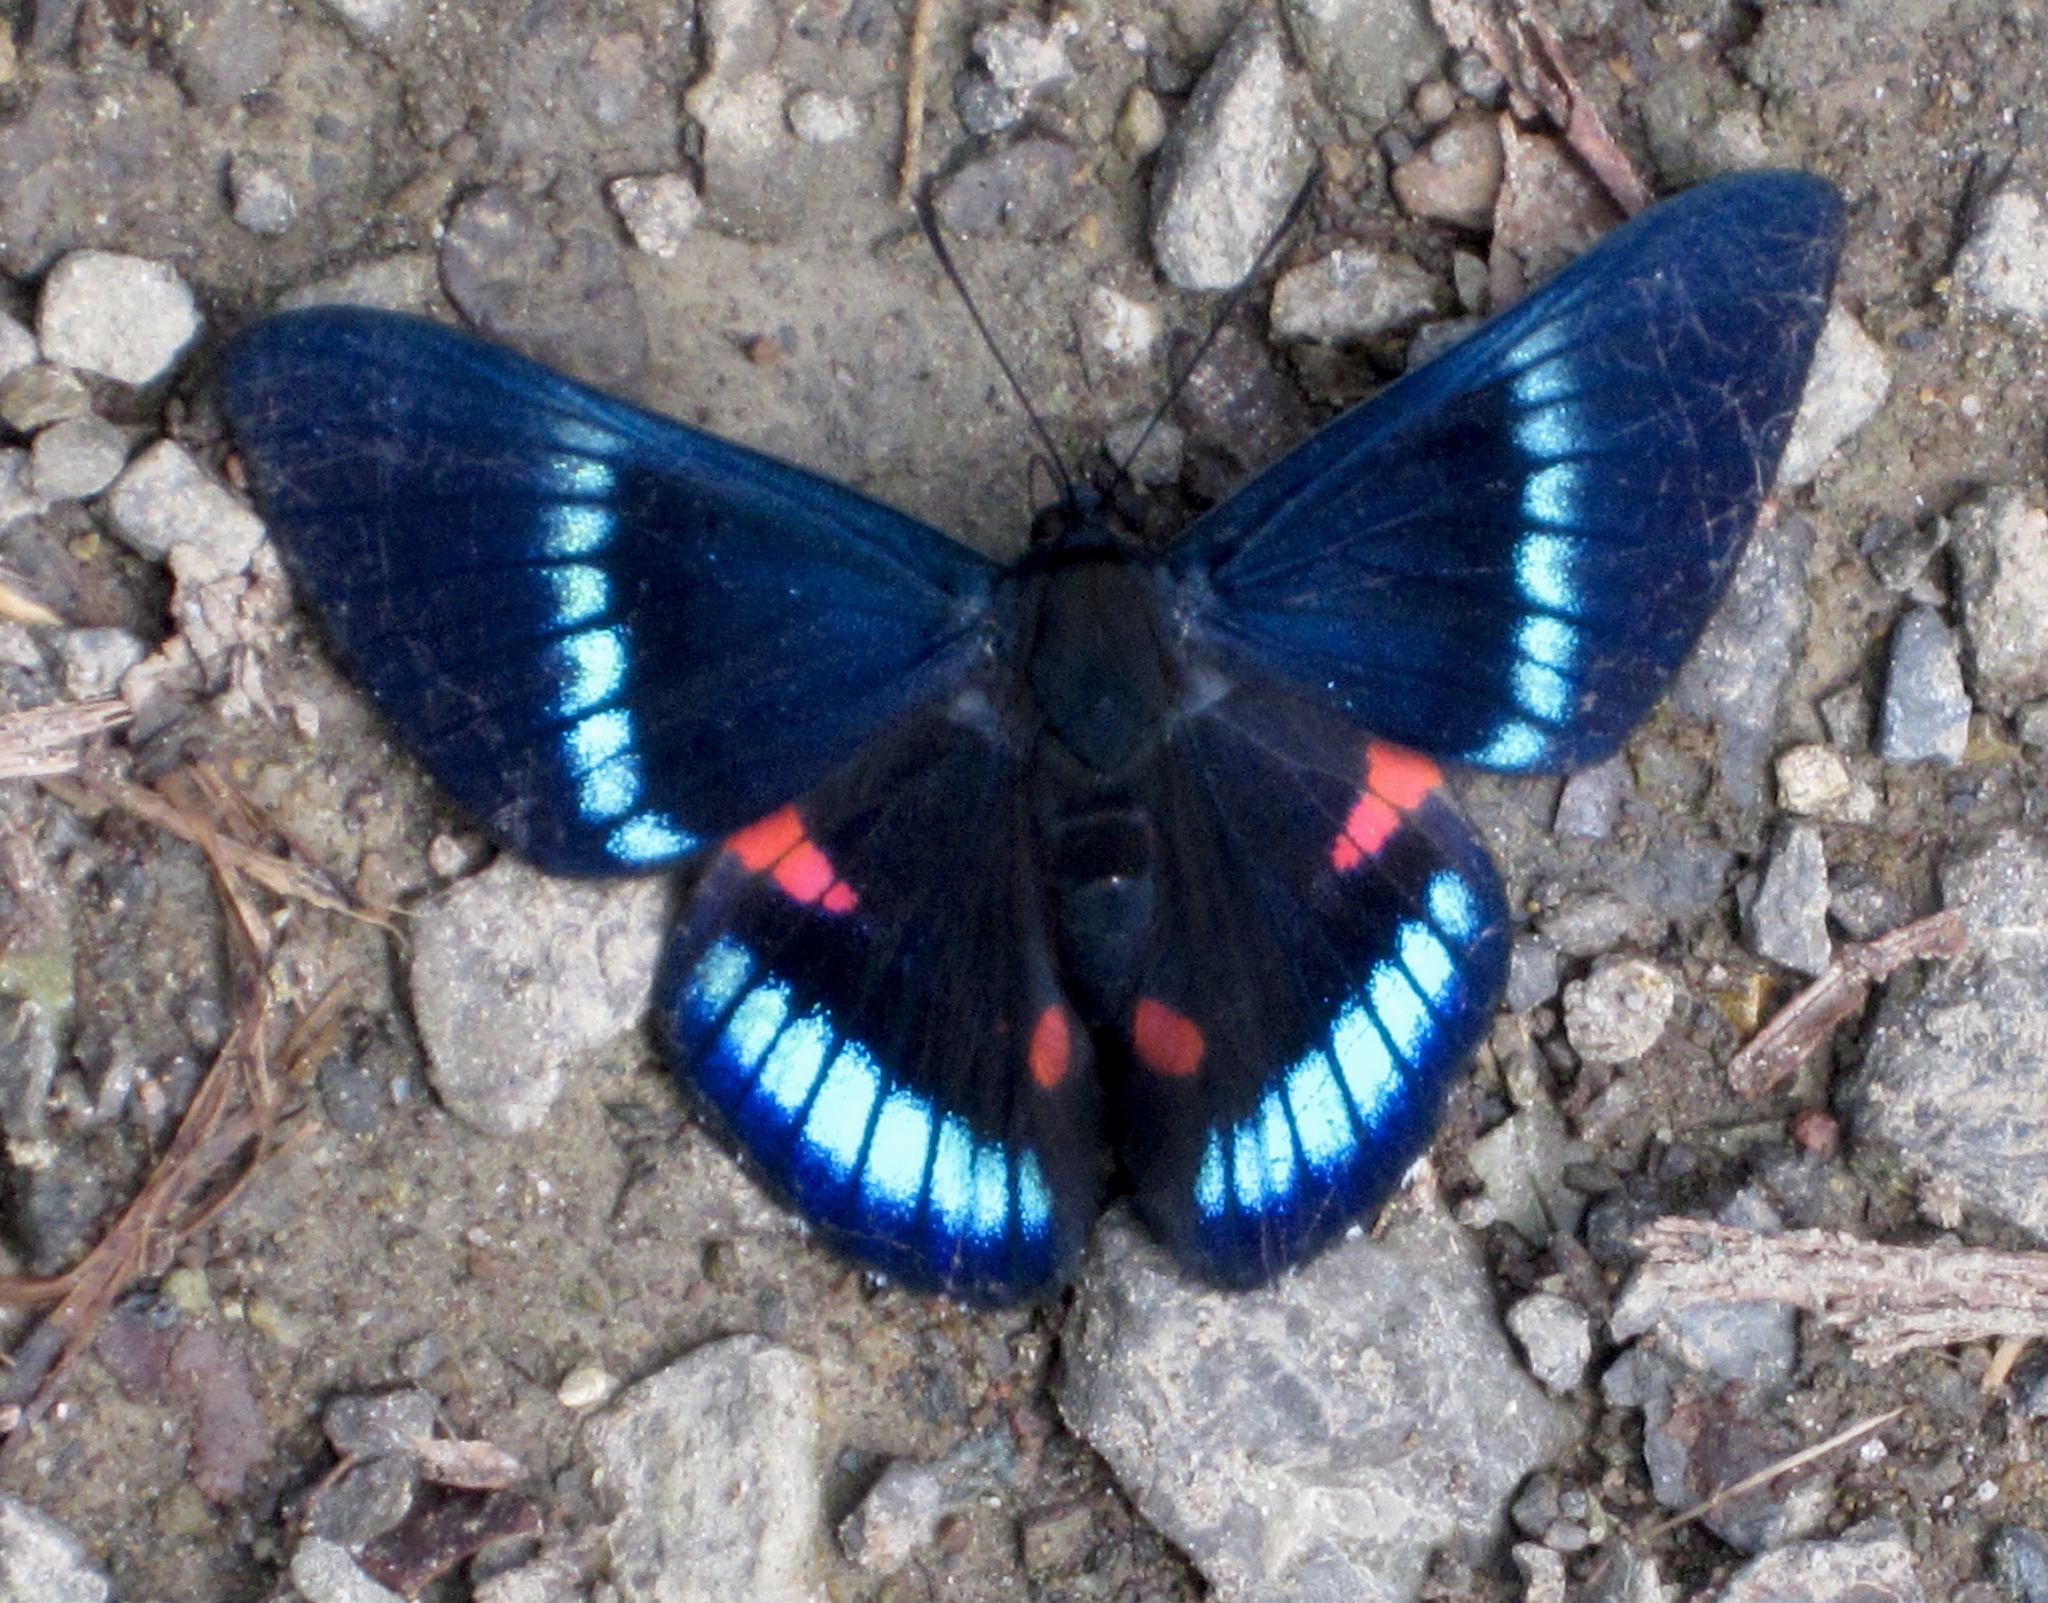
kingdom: Animalia
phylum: Arthropoda
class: Insecta
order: Lepidoptera
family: Lycaenidae
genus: Necyria
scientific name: Necyria bellona
